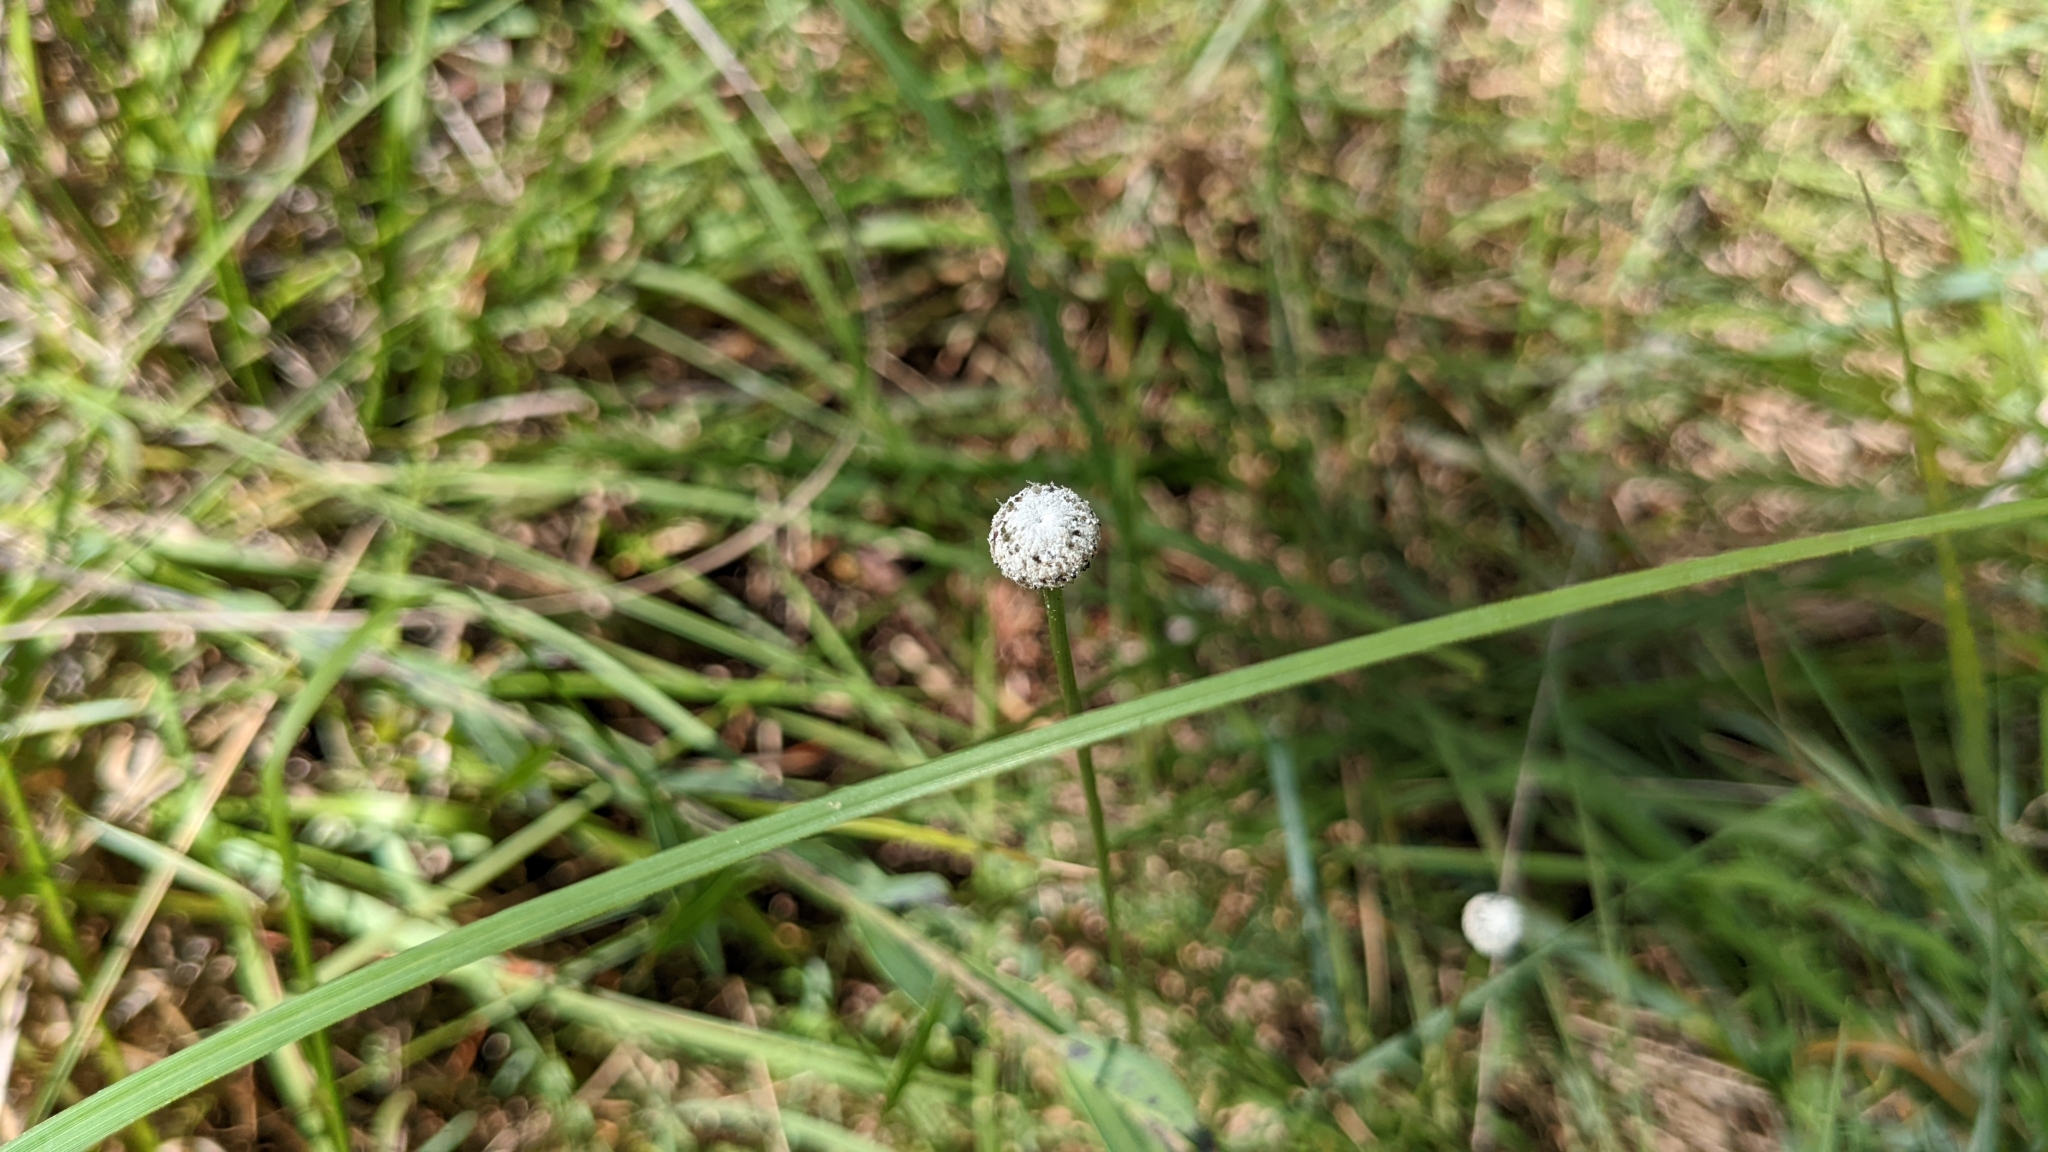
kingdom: Plantae
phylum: Tracheophyta
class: Liliopsida
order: Poales
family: Eriocaulaceae
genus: Eriocaulon
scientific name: Eriocaulon decangulare
